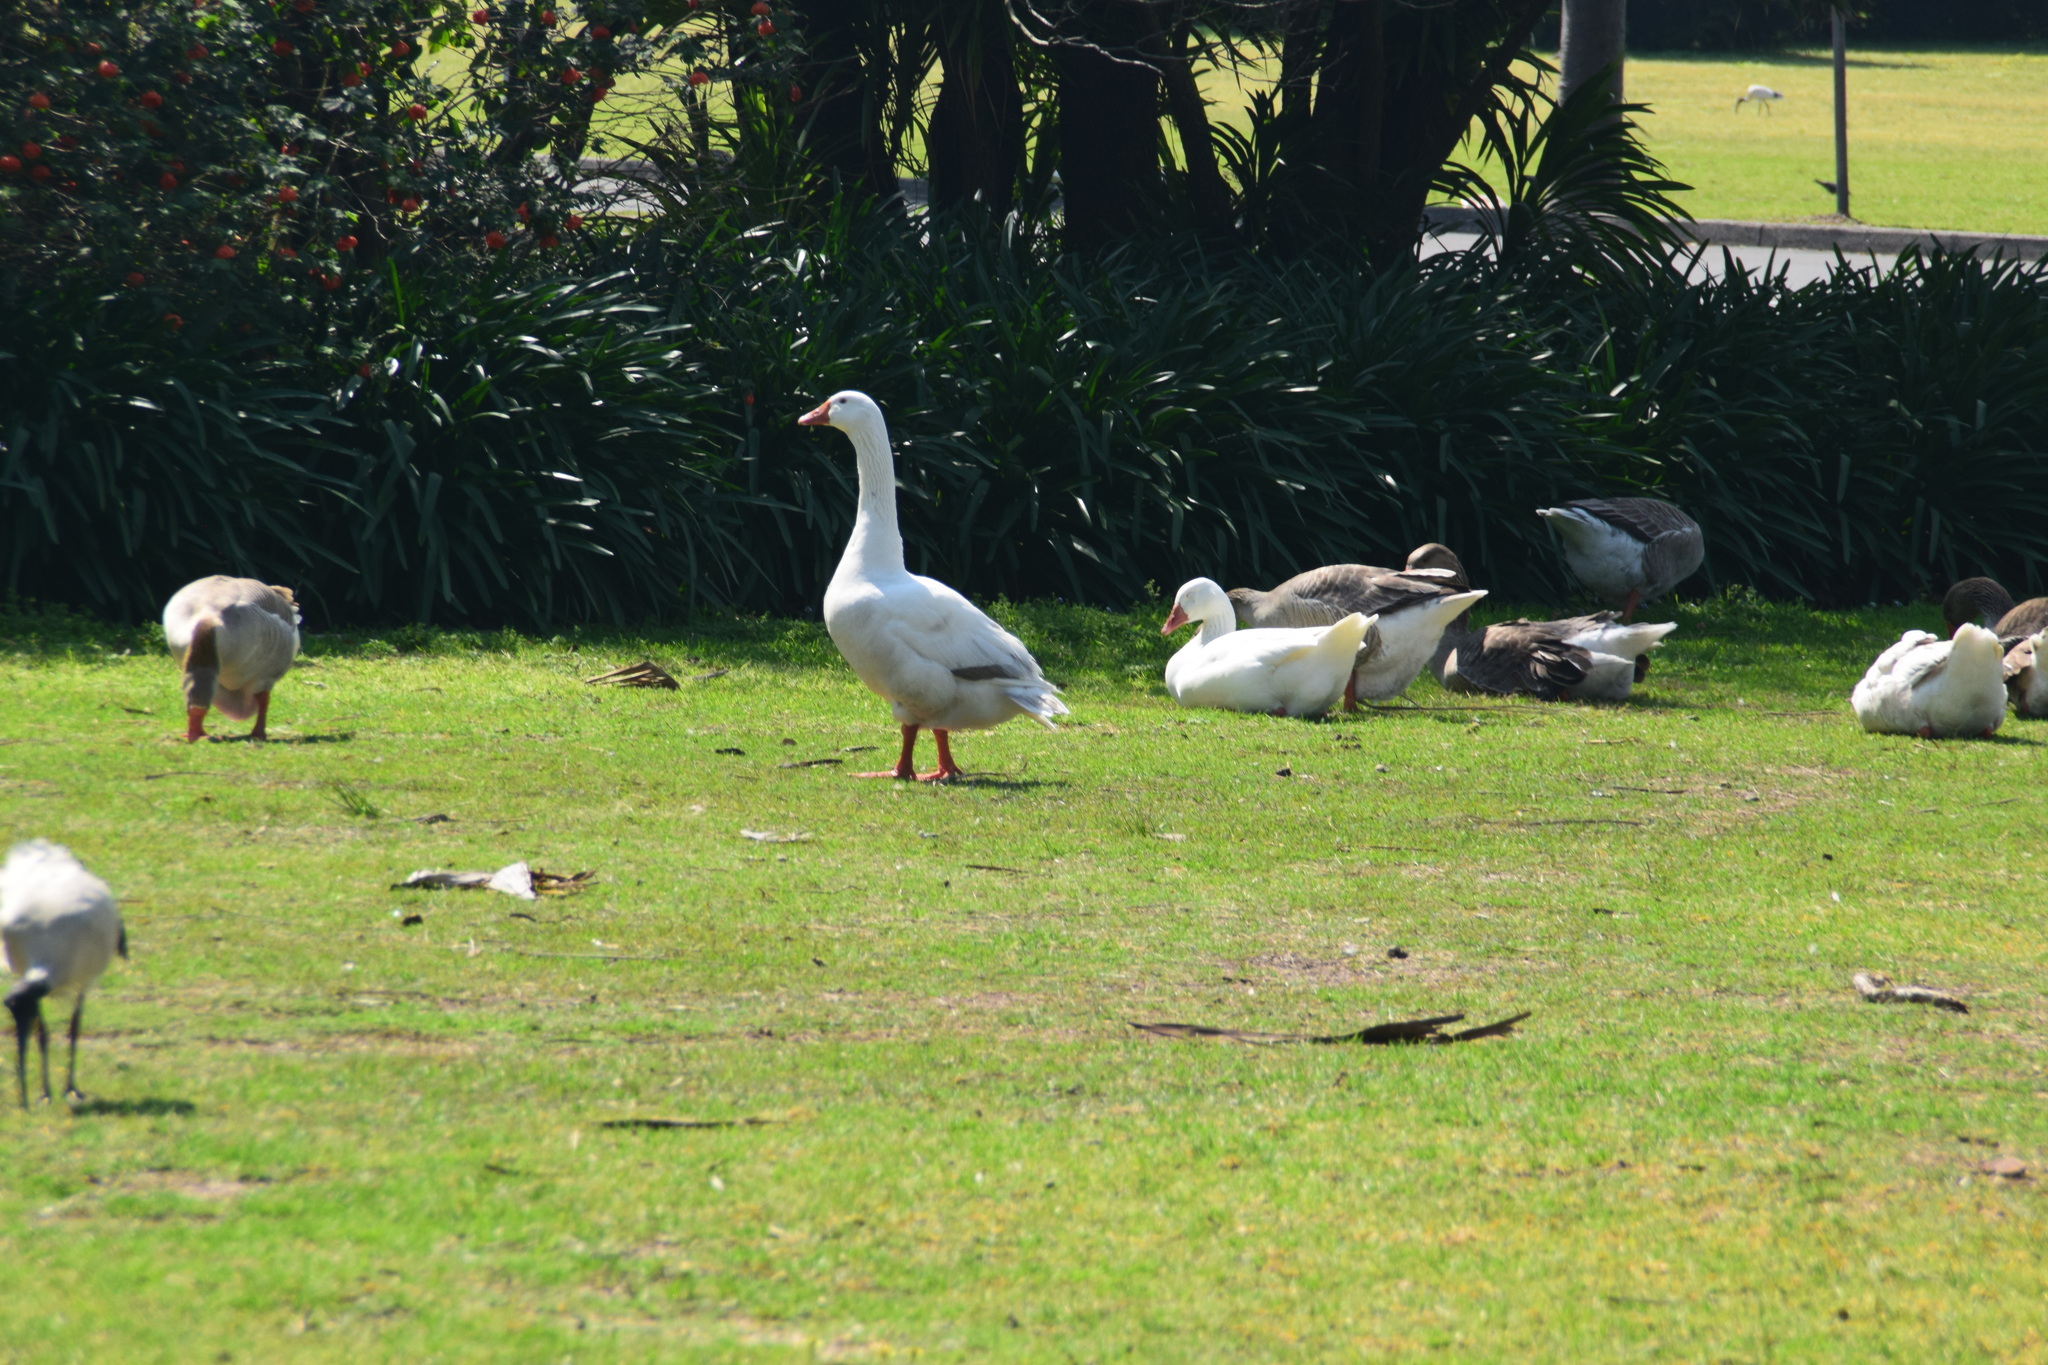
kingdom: Animalia
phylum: Chordata
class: Aves
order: Anseriformes
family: Anatidae
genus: Anser
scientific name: Anser anser
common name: Greylag goose
